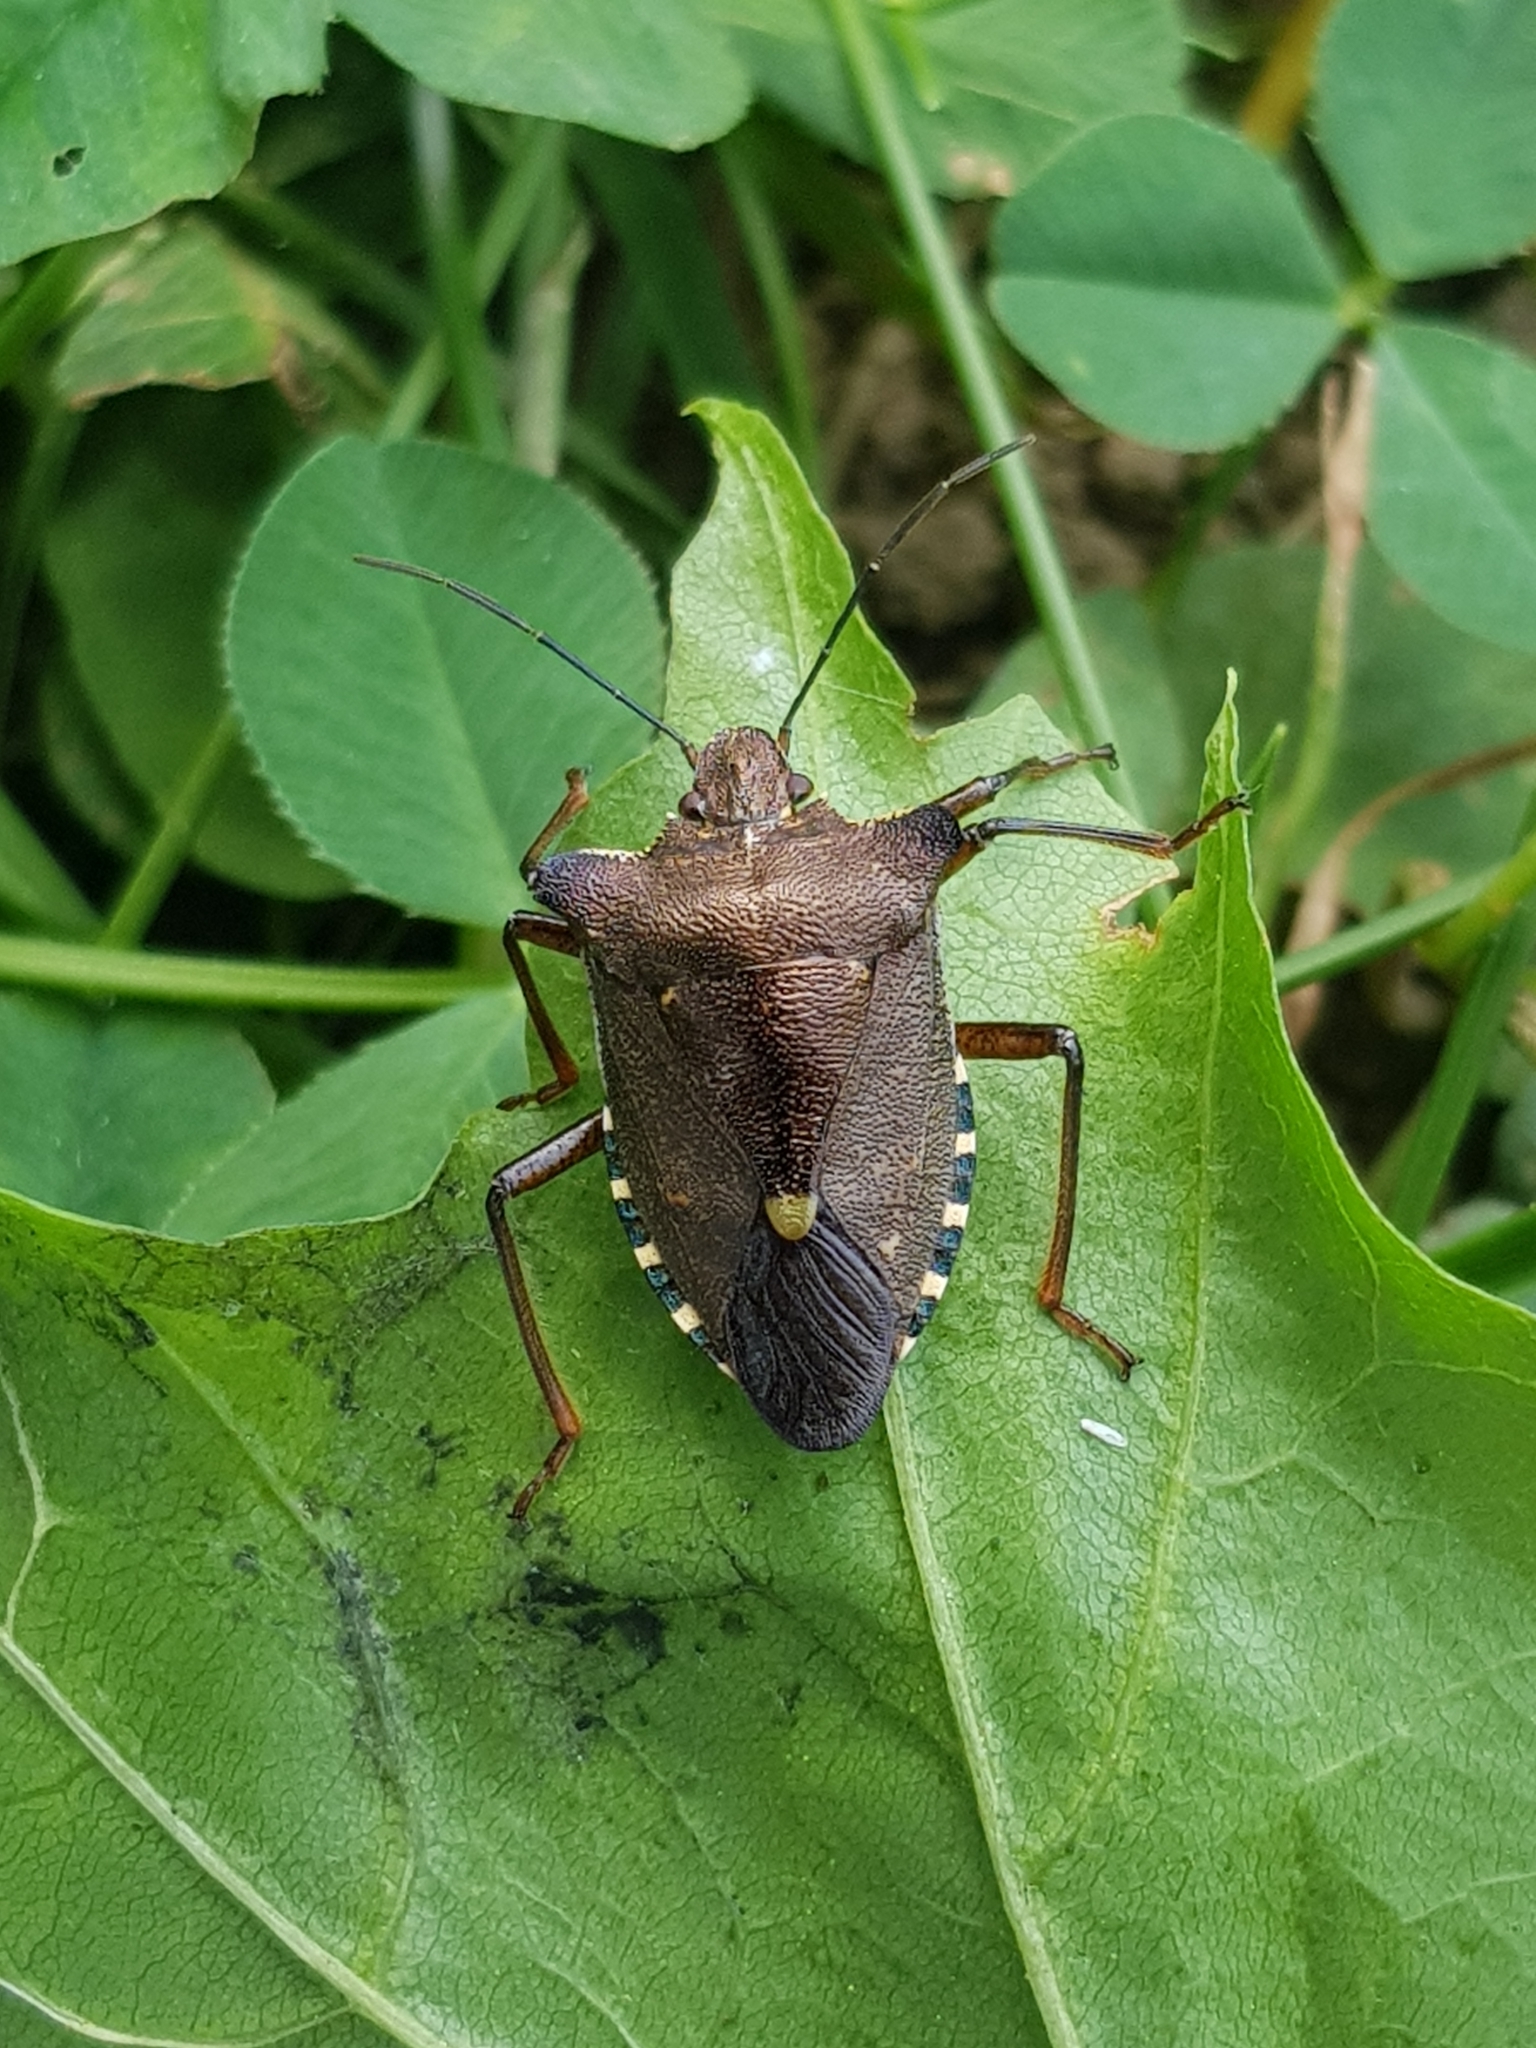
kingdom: Animalia
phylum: Arthropoda
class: Insecta
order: Hemiptera
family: Pentatomidae
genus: Pentatoma
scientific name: Pentatoma rufipes
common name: Forest bug
